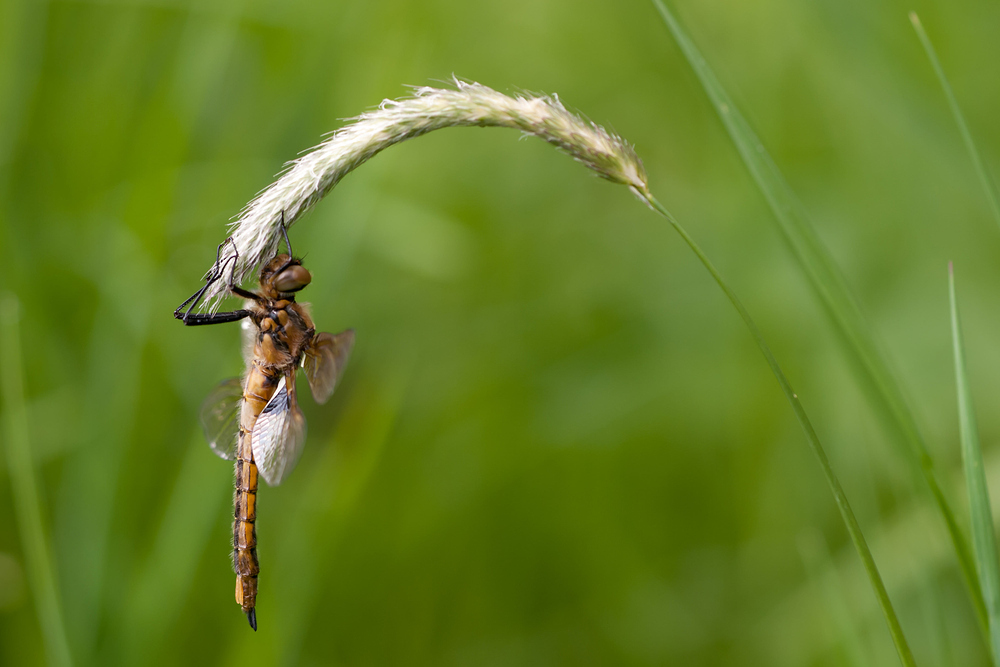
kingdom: Animalia
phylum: Arthropoda
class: Insecta
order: Odonata
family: Corduliidae
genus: Epitheca
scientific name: Epitheca bimaculata
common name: Eurasian baskettail
